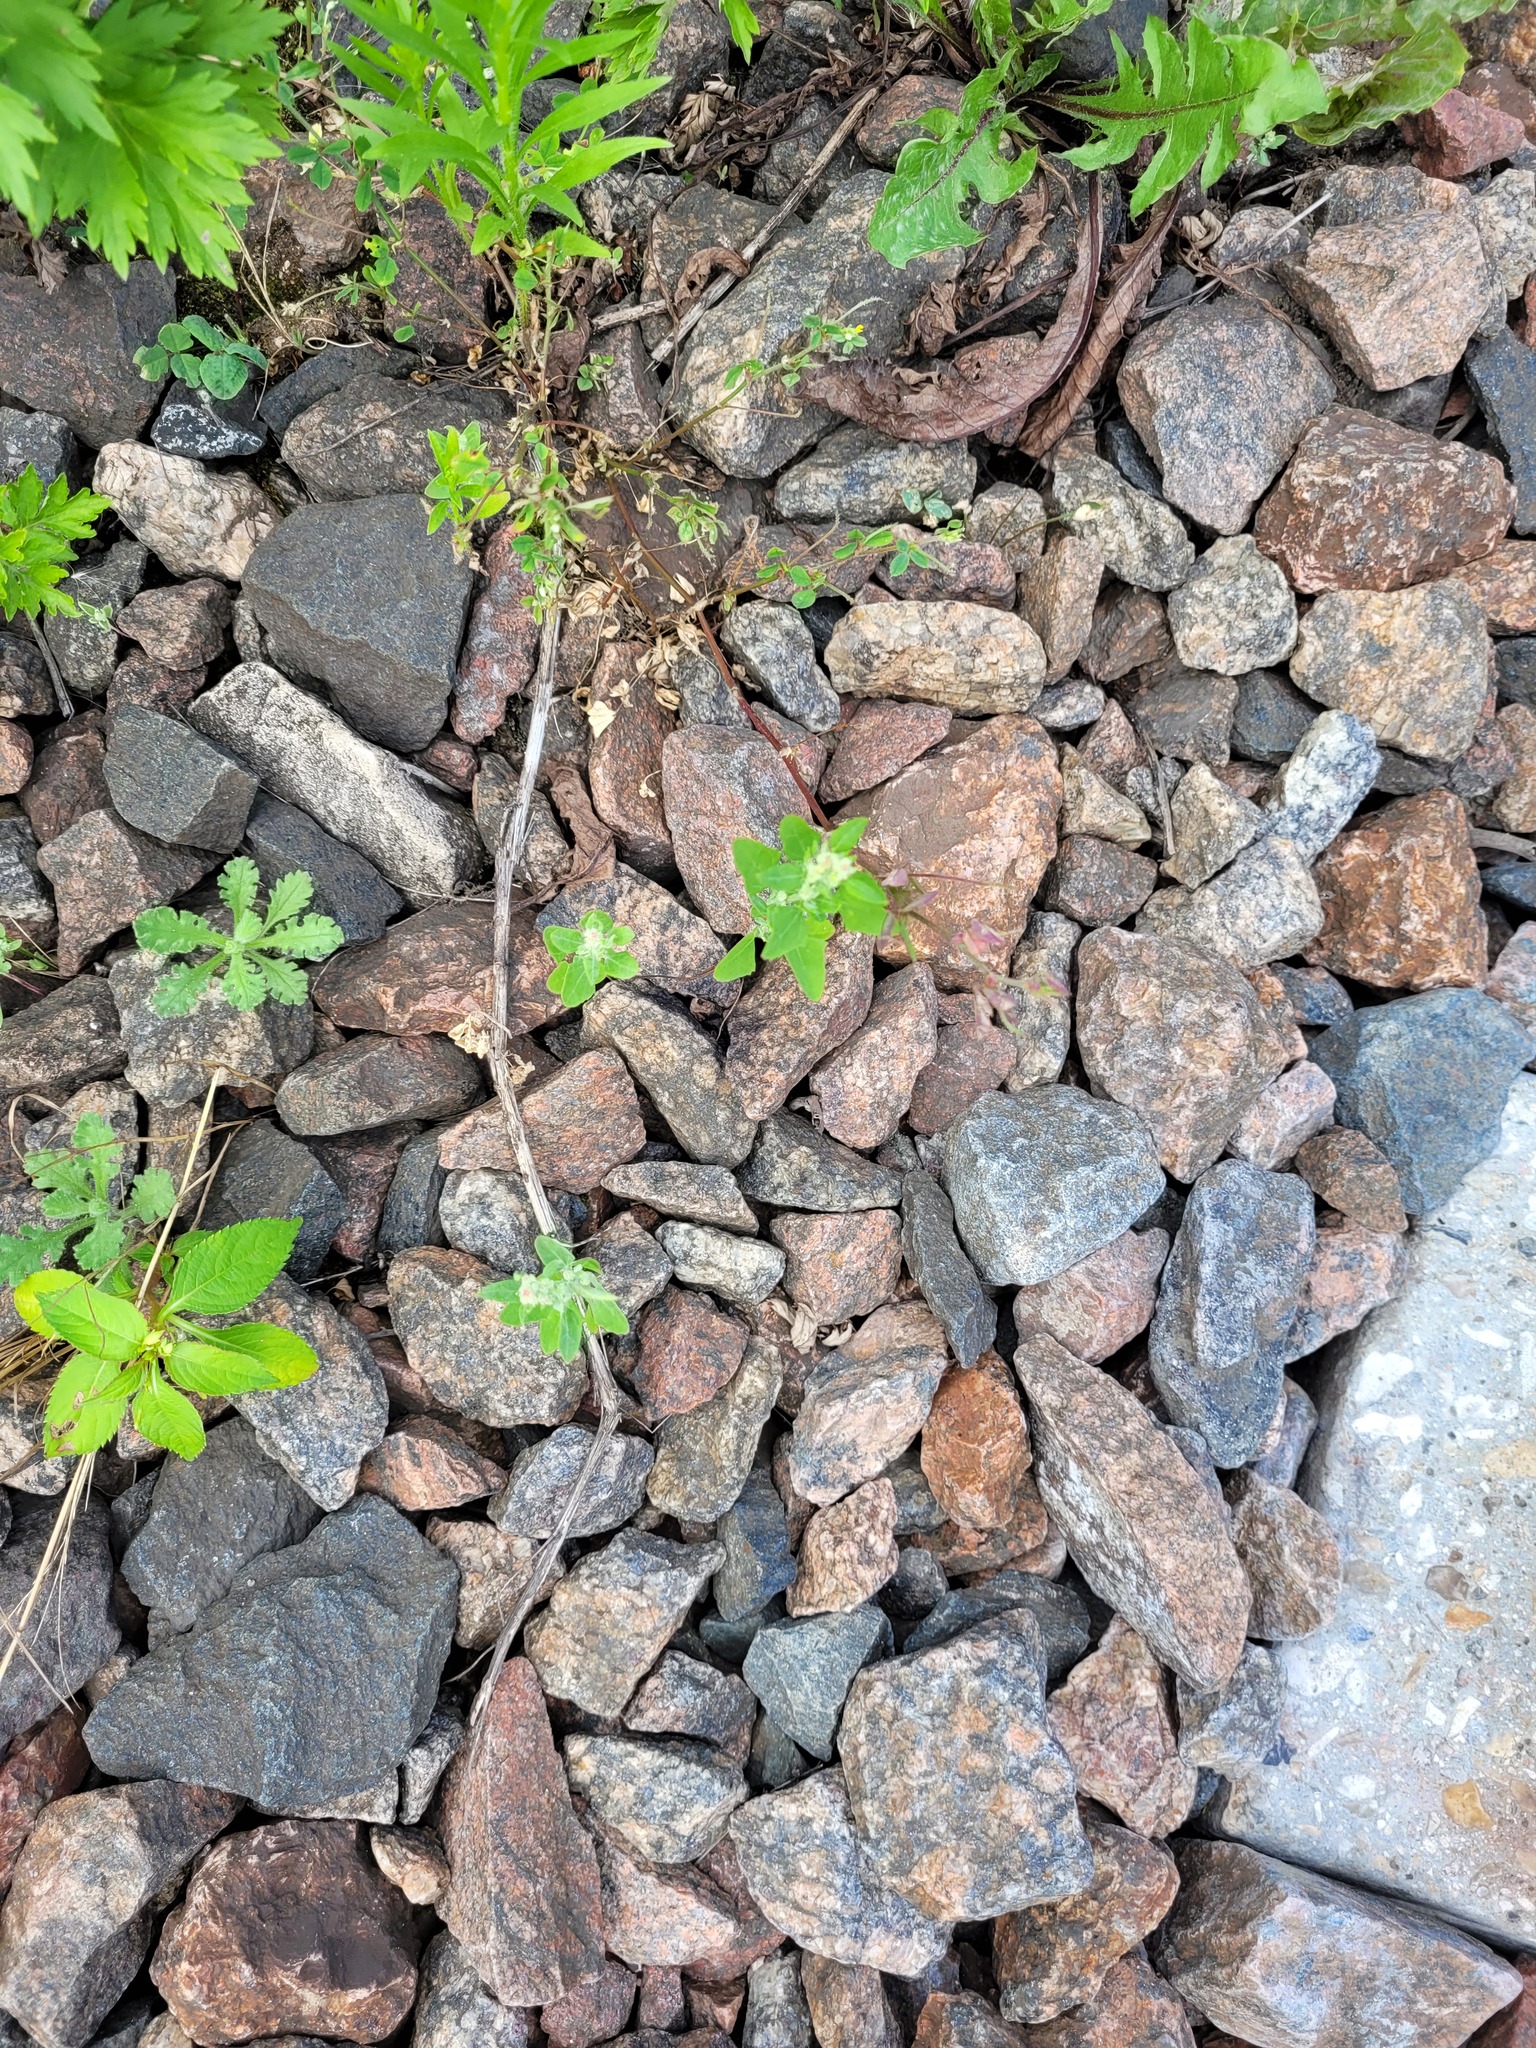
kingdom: Plantae
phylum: Tracheophyta
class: Magnoliopsida
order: Caryophyllales
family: Amaranthaceae
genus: Chenopodium
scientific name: Chenopodium album
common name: Fat-hen
